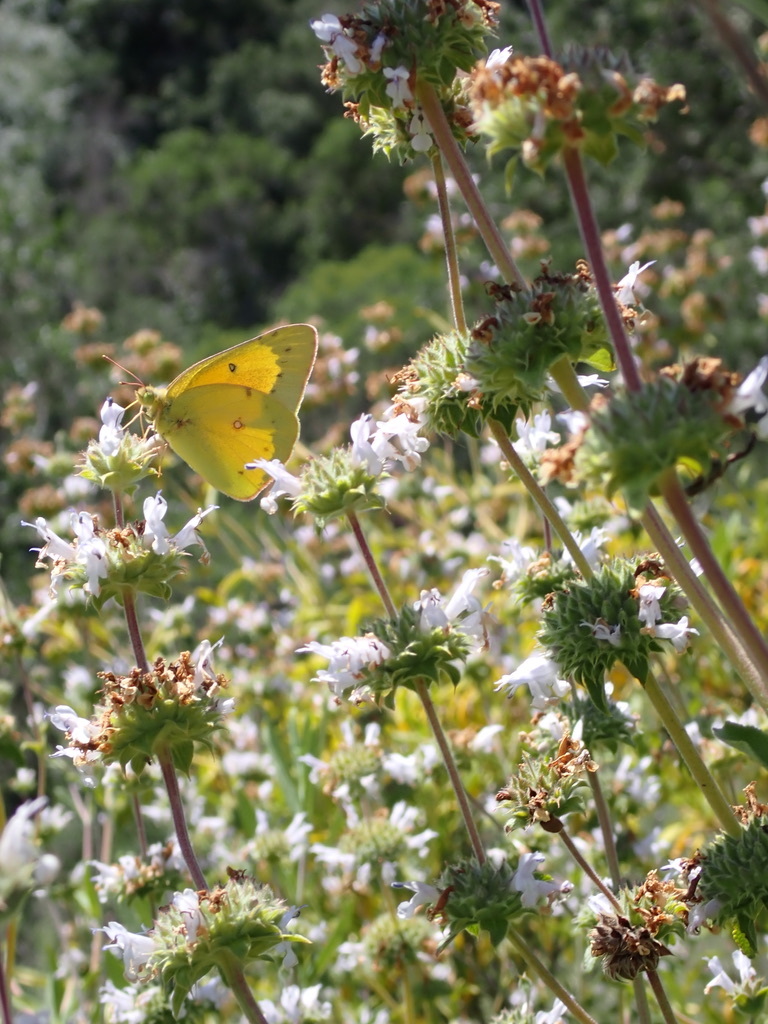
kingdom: Animalia
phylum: Arthropoda
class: Insecta
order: Lepidoptera
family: Pieridae
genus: Colias
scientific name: Colias eurytheme
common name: Alfalfa butterfly
